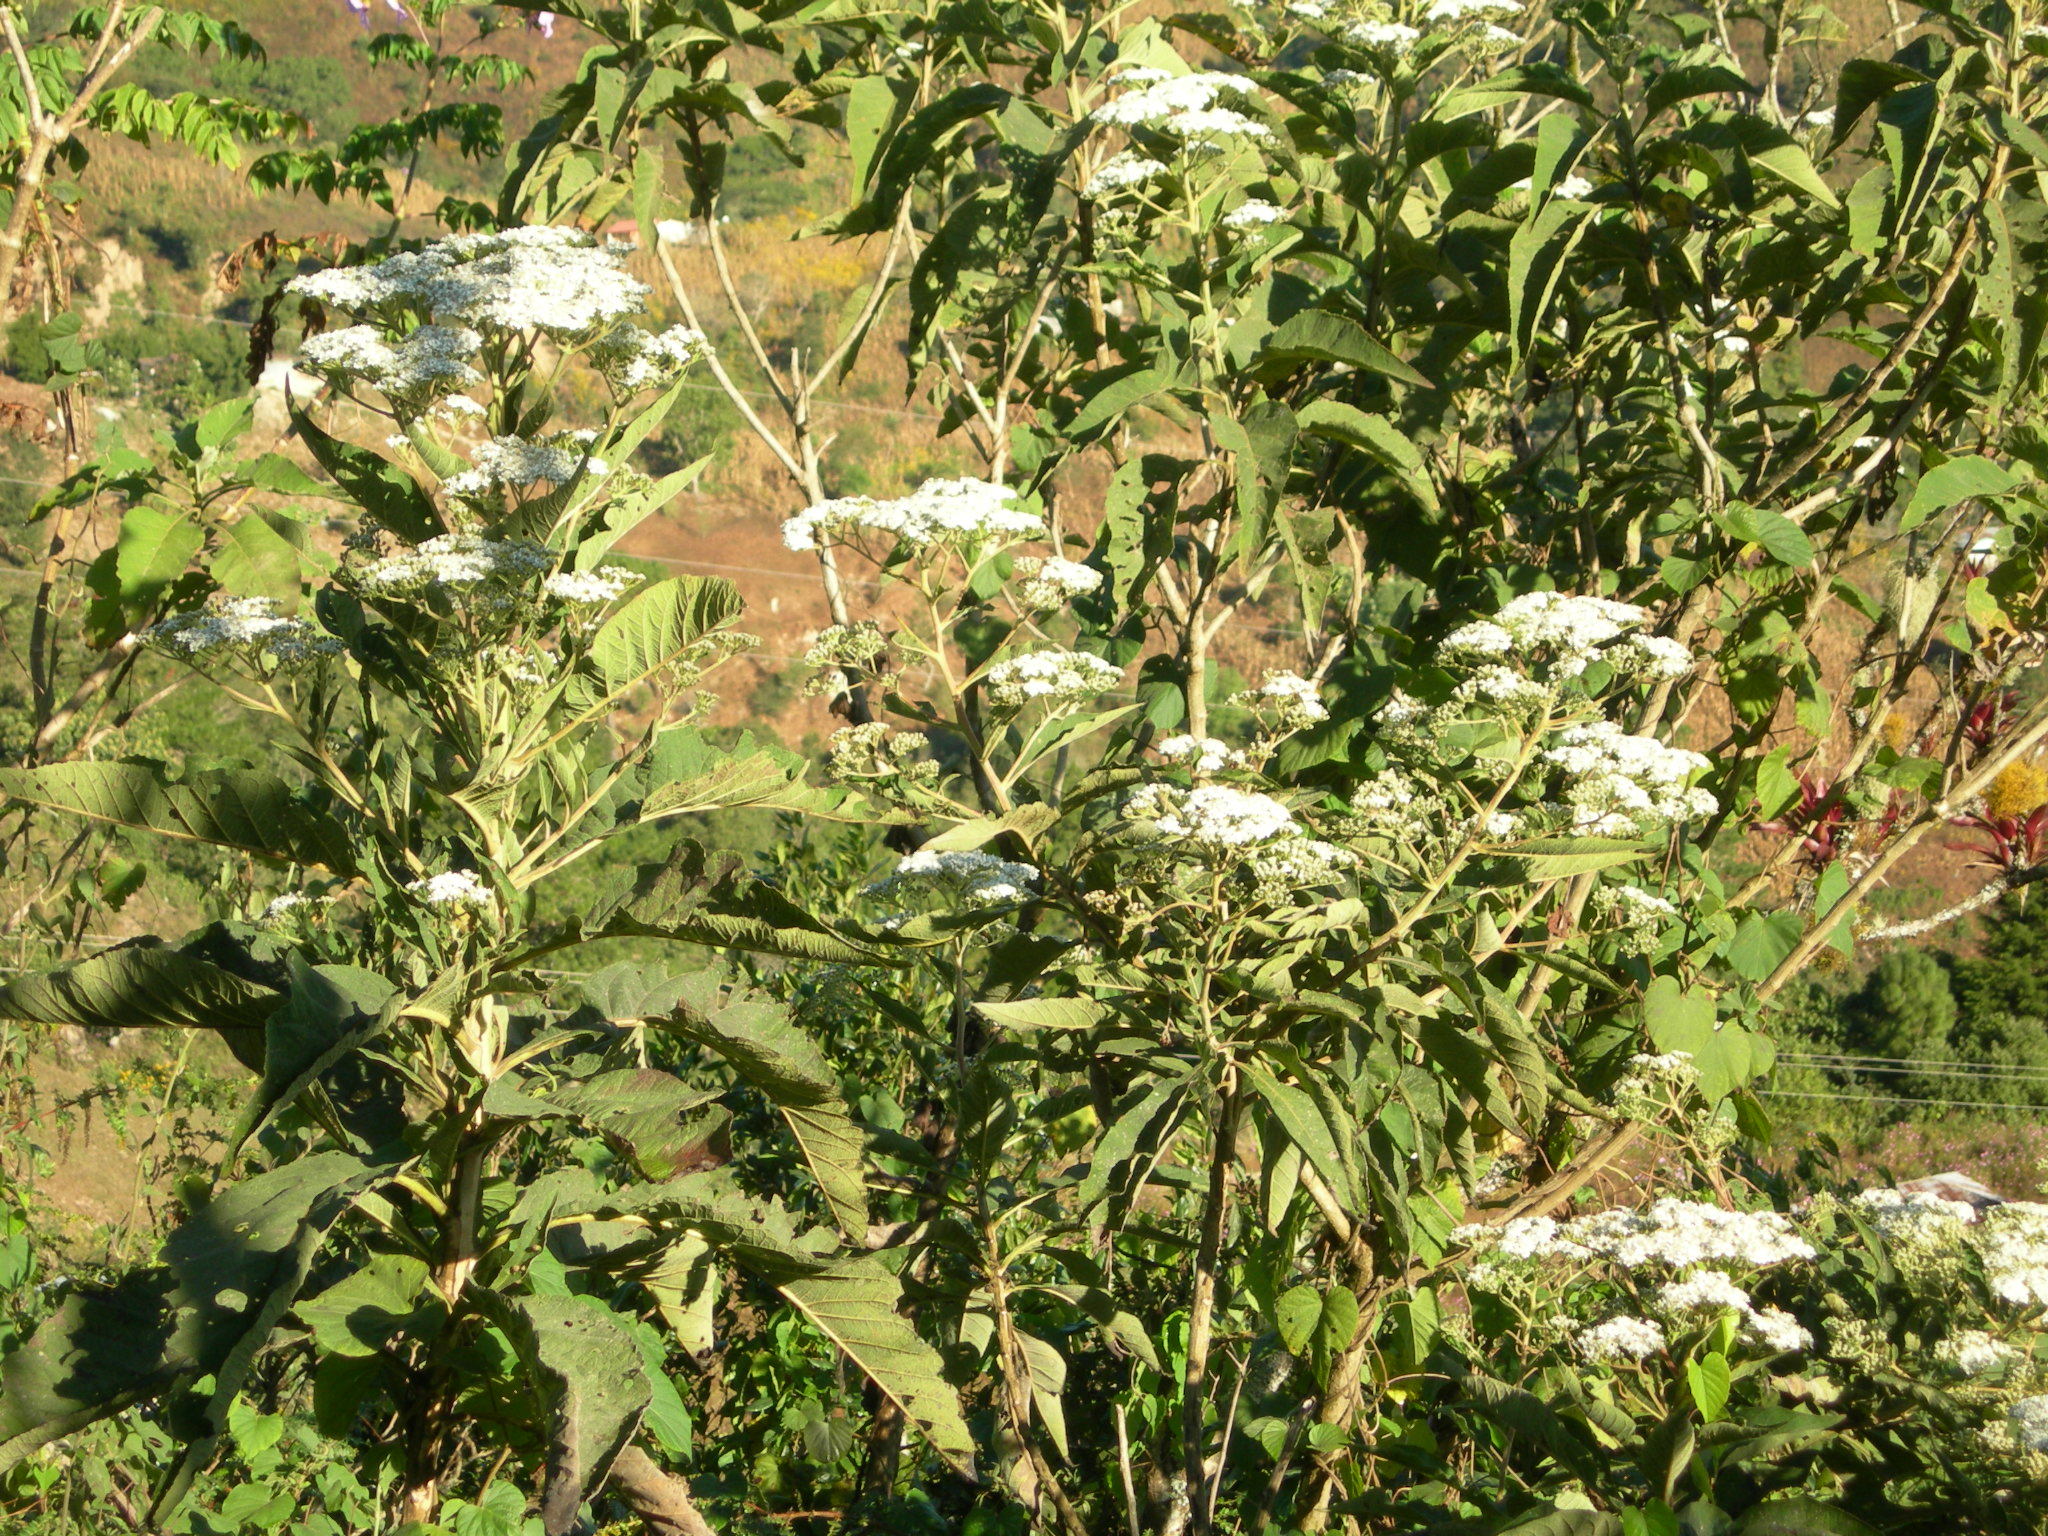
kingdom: Plantae
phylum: Tracheophyta
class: Magnoliopsida
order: Asterales
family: Asteraceae
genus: Verbesina
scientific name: Verbesina turbacensis
